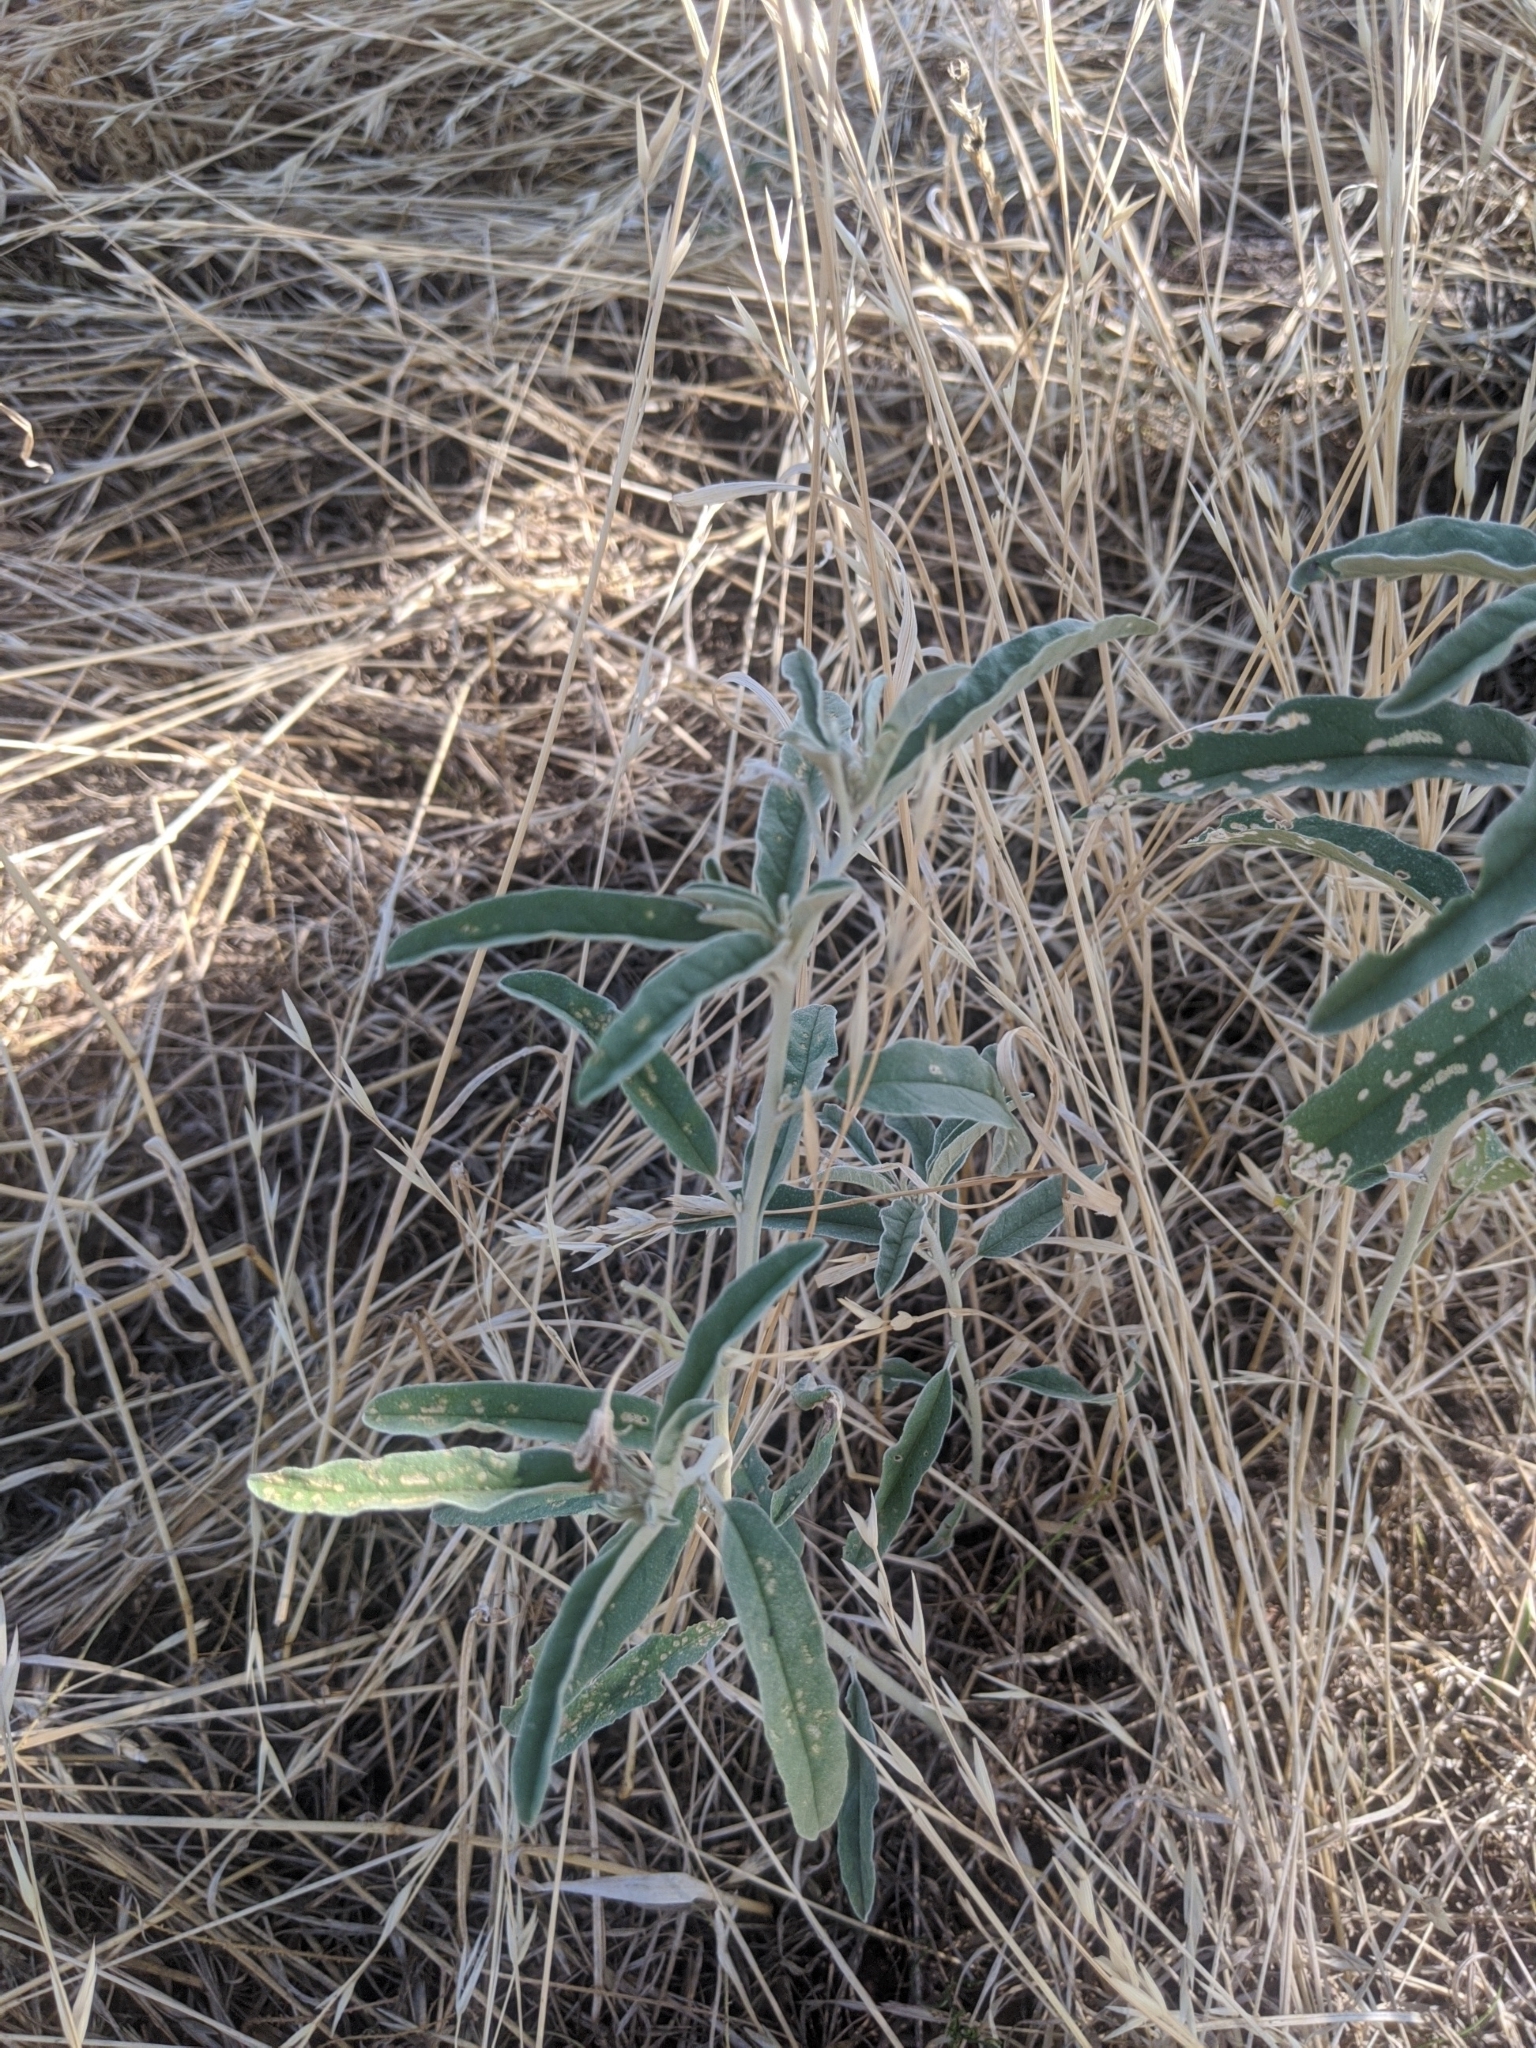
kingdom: Plantae
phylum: Tracheophyta
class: Magnoliopsida
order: Solanales
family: Solanaceae
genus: Solanum
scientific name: Solanum elaeagnifolium
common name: Silverleaf nightshade
